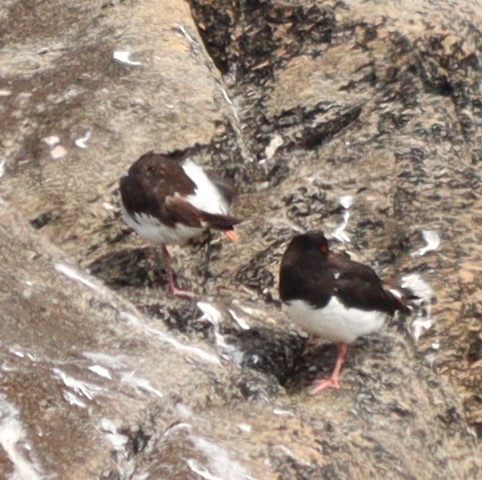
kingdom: Animalia
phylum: Chordata
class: Aves
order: Charadriiformes
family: Haematopodidae
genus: Haematopus
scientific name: Haematopus ostralegus
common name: Eurasian oystercatcher
